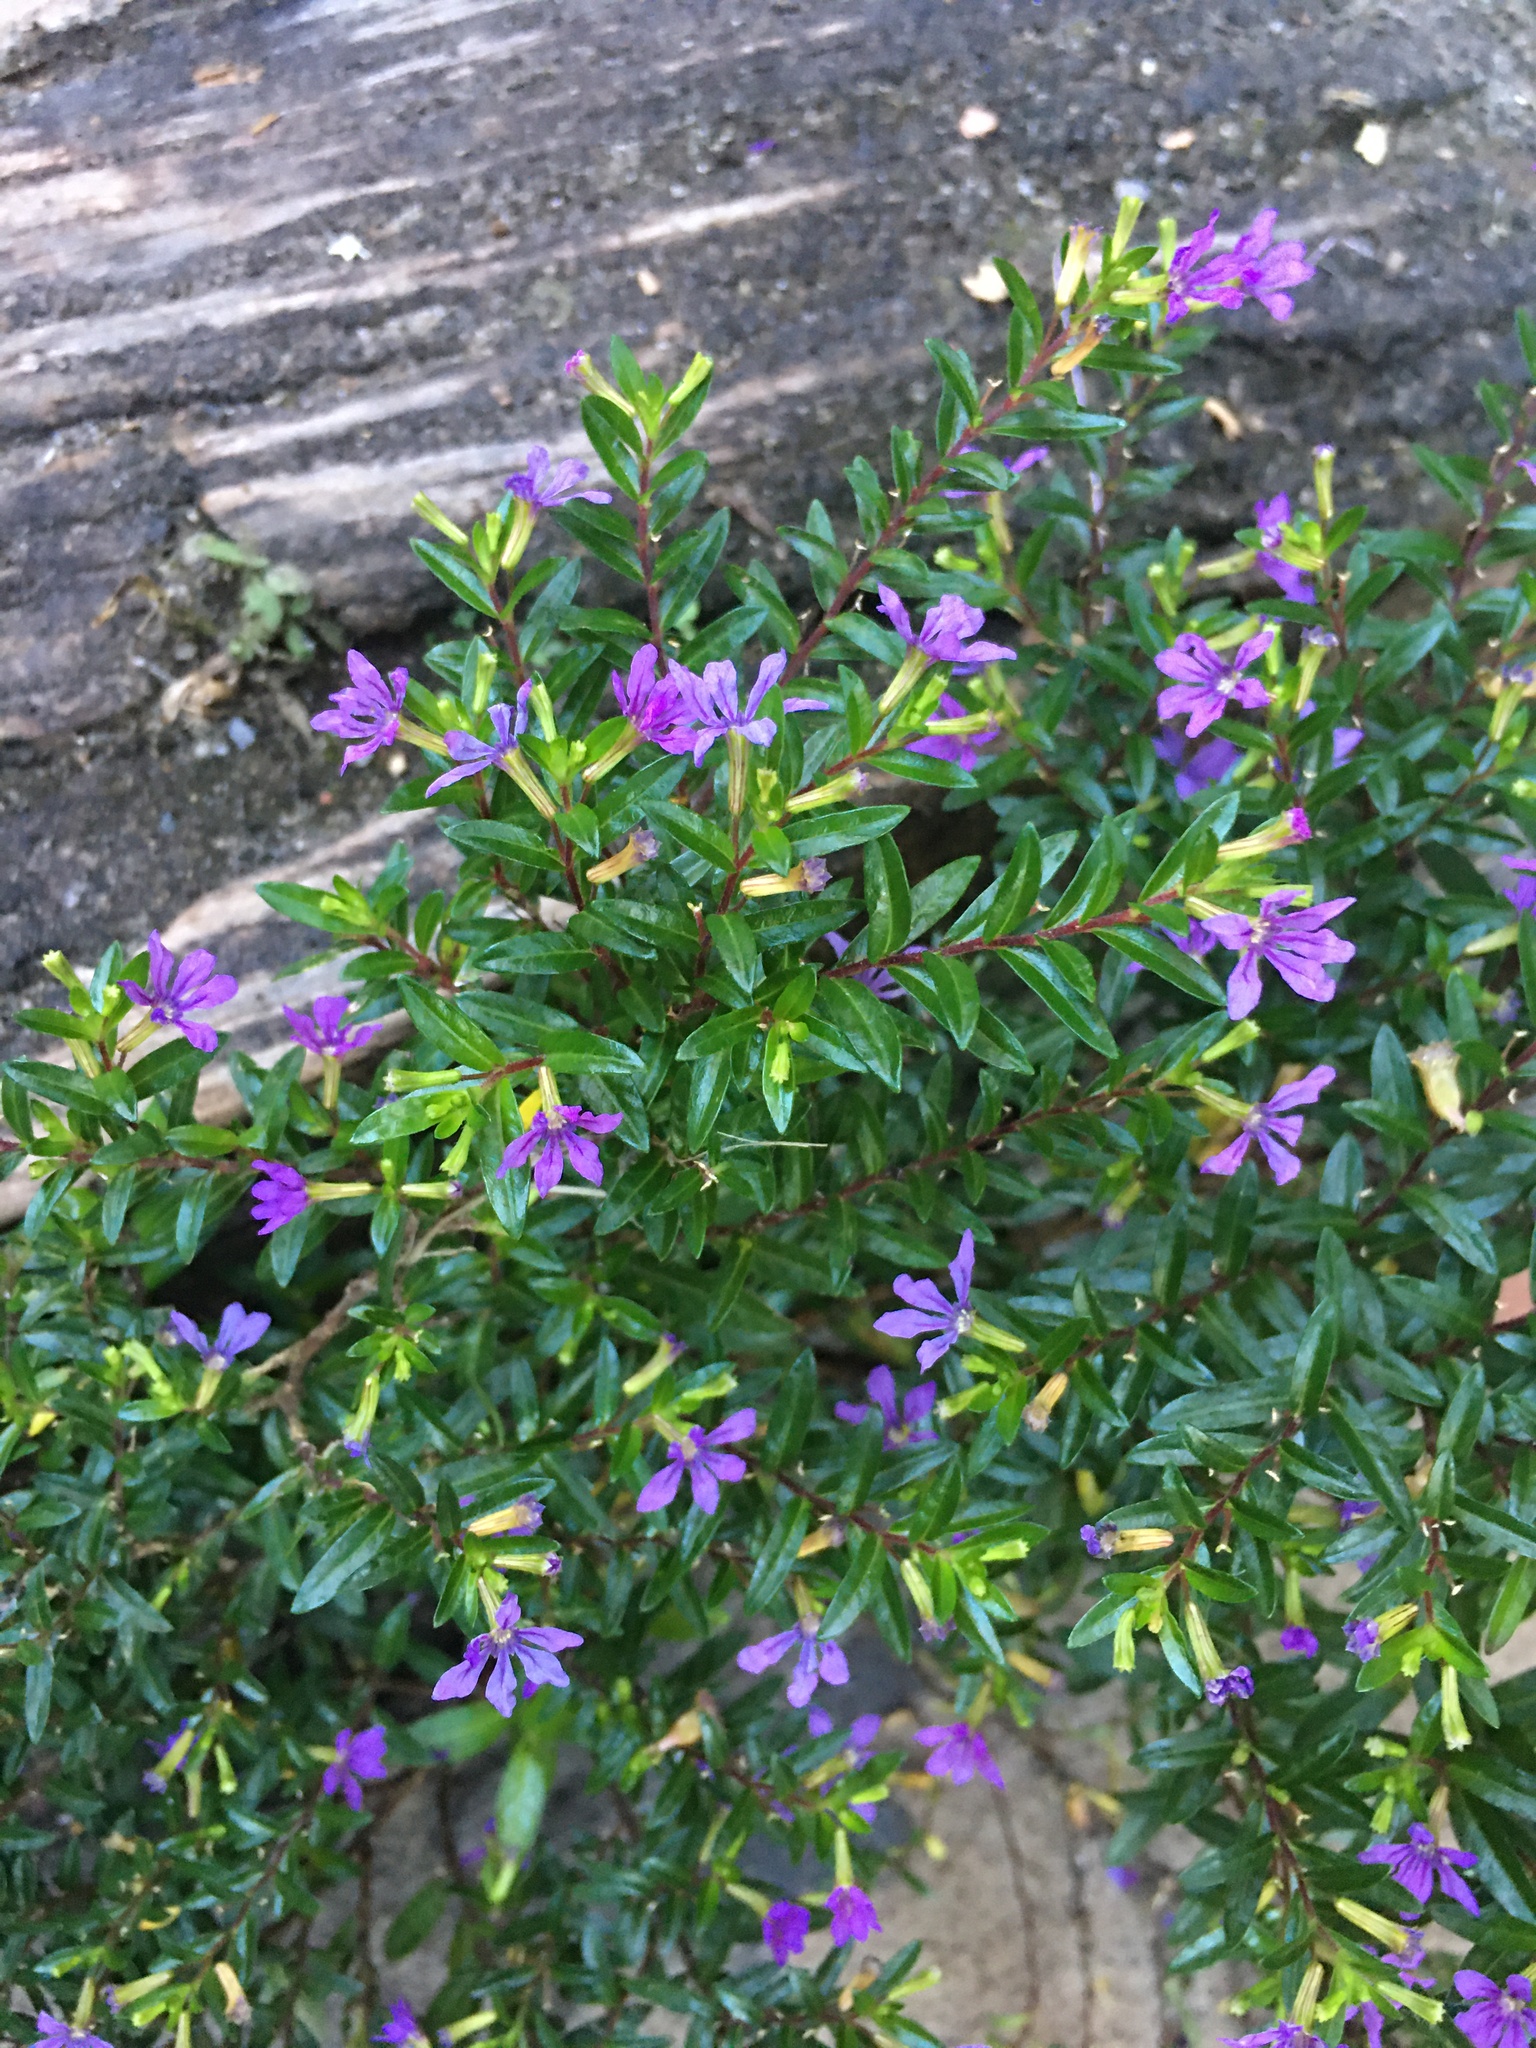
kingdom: Plantae
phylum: Tracheophyta
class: Magnoliopsida
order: Myrtales
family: Lythraceae
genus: Cuphea
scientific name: Cuphea hyssopifolia
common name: False heather
